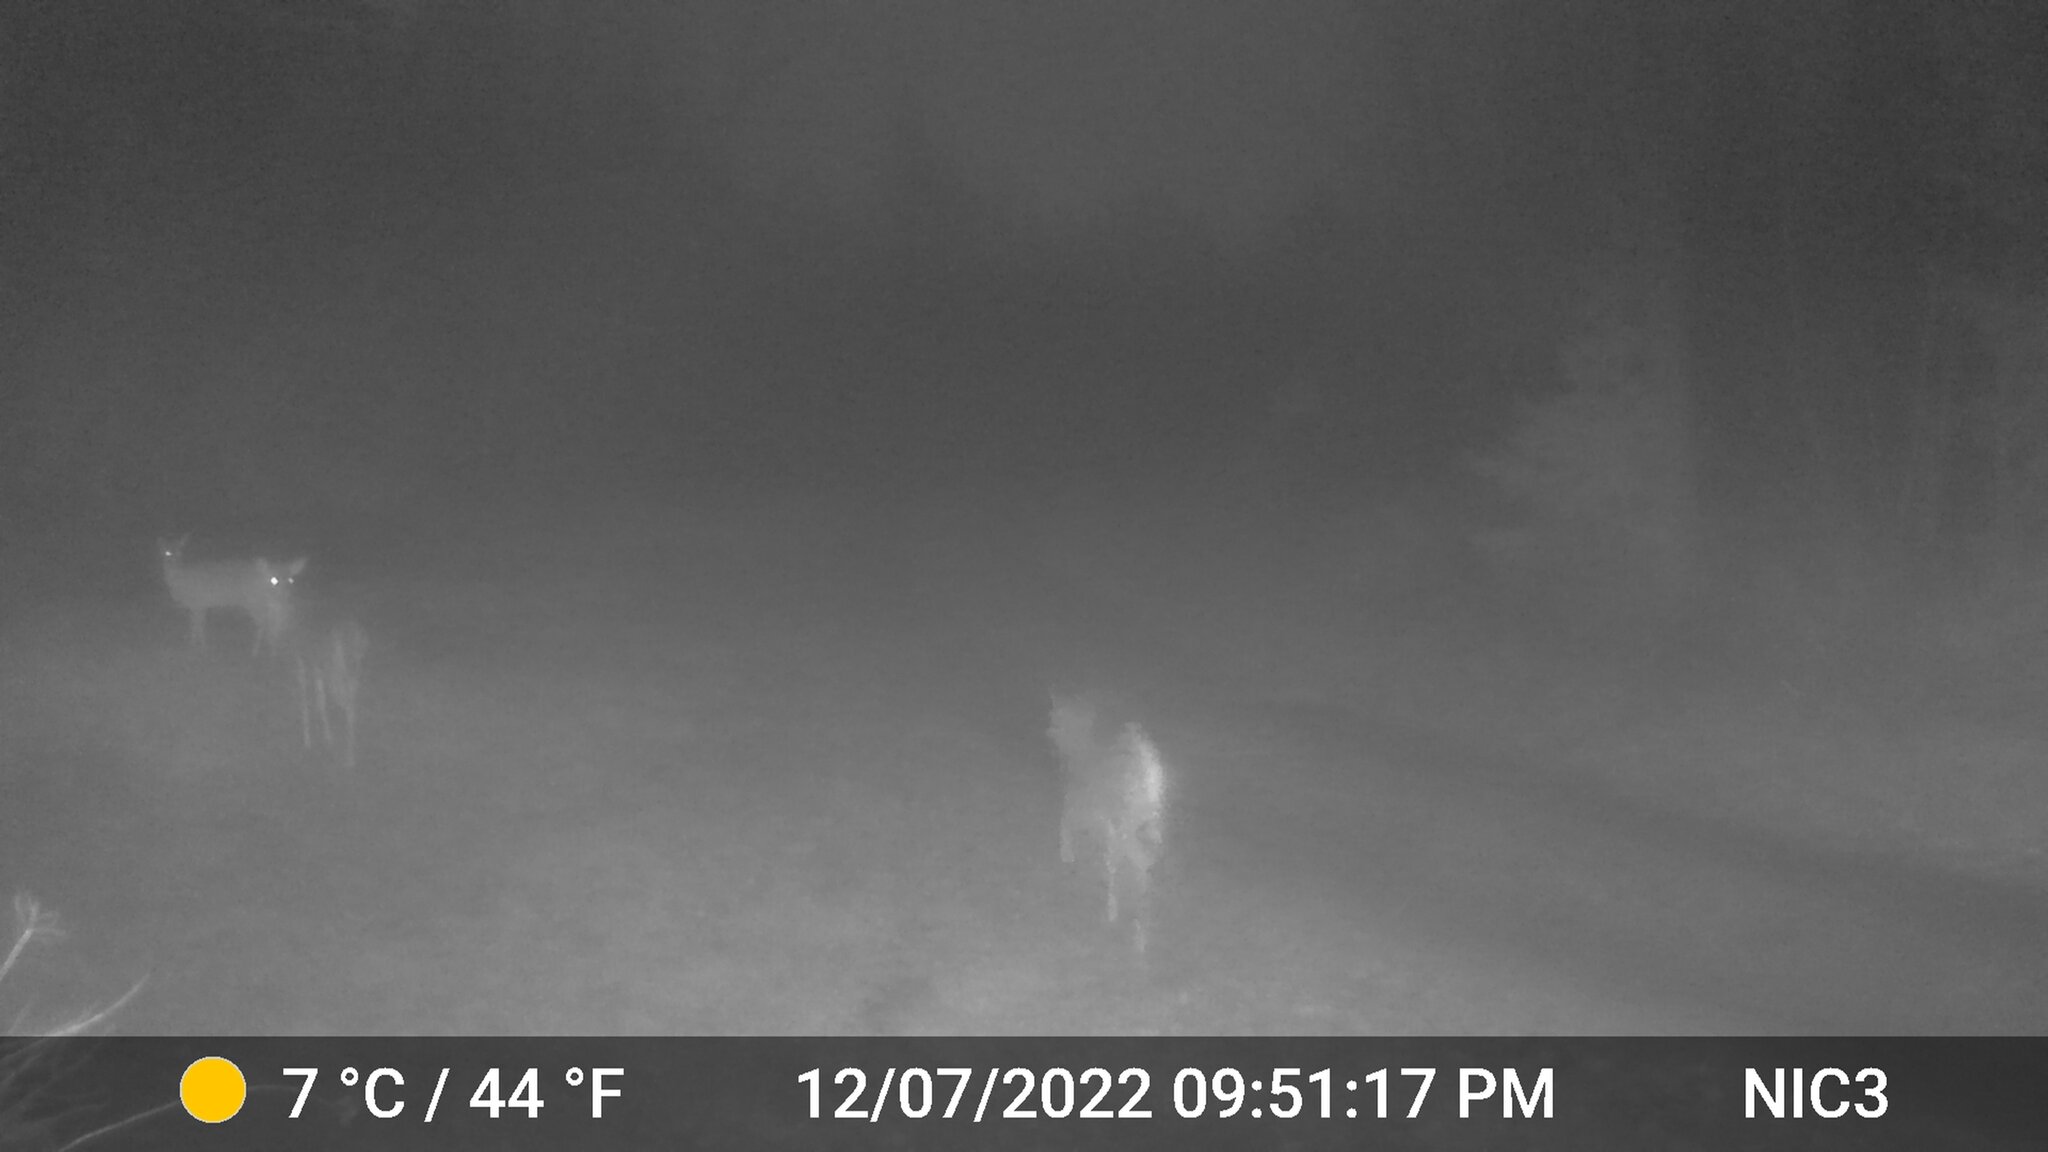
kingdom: Animalia
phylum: Chordata
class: Mammalia
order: Artiodactyla
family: Cervidae
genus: Odocoileus
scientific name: Odocoileus virginianus
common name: White-tailed deer
